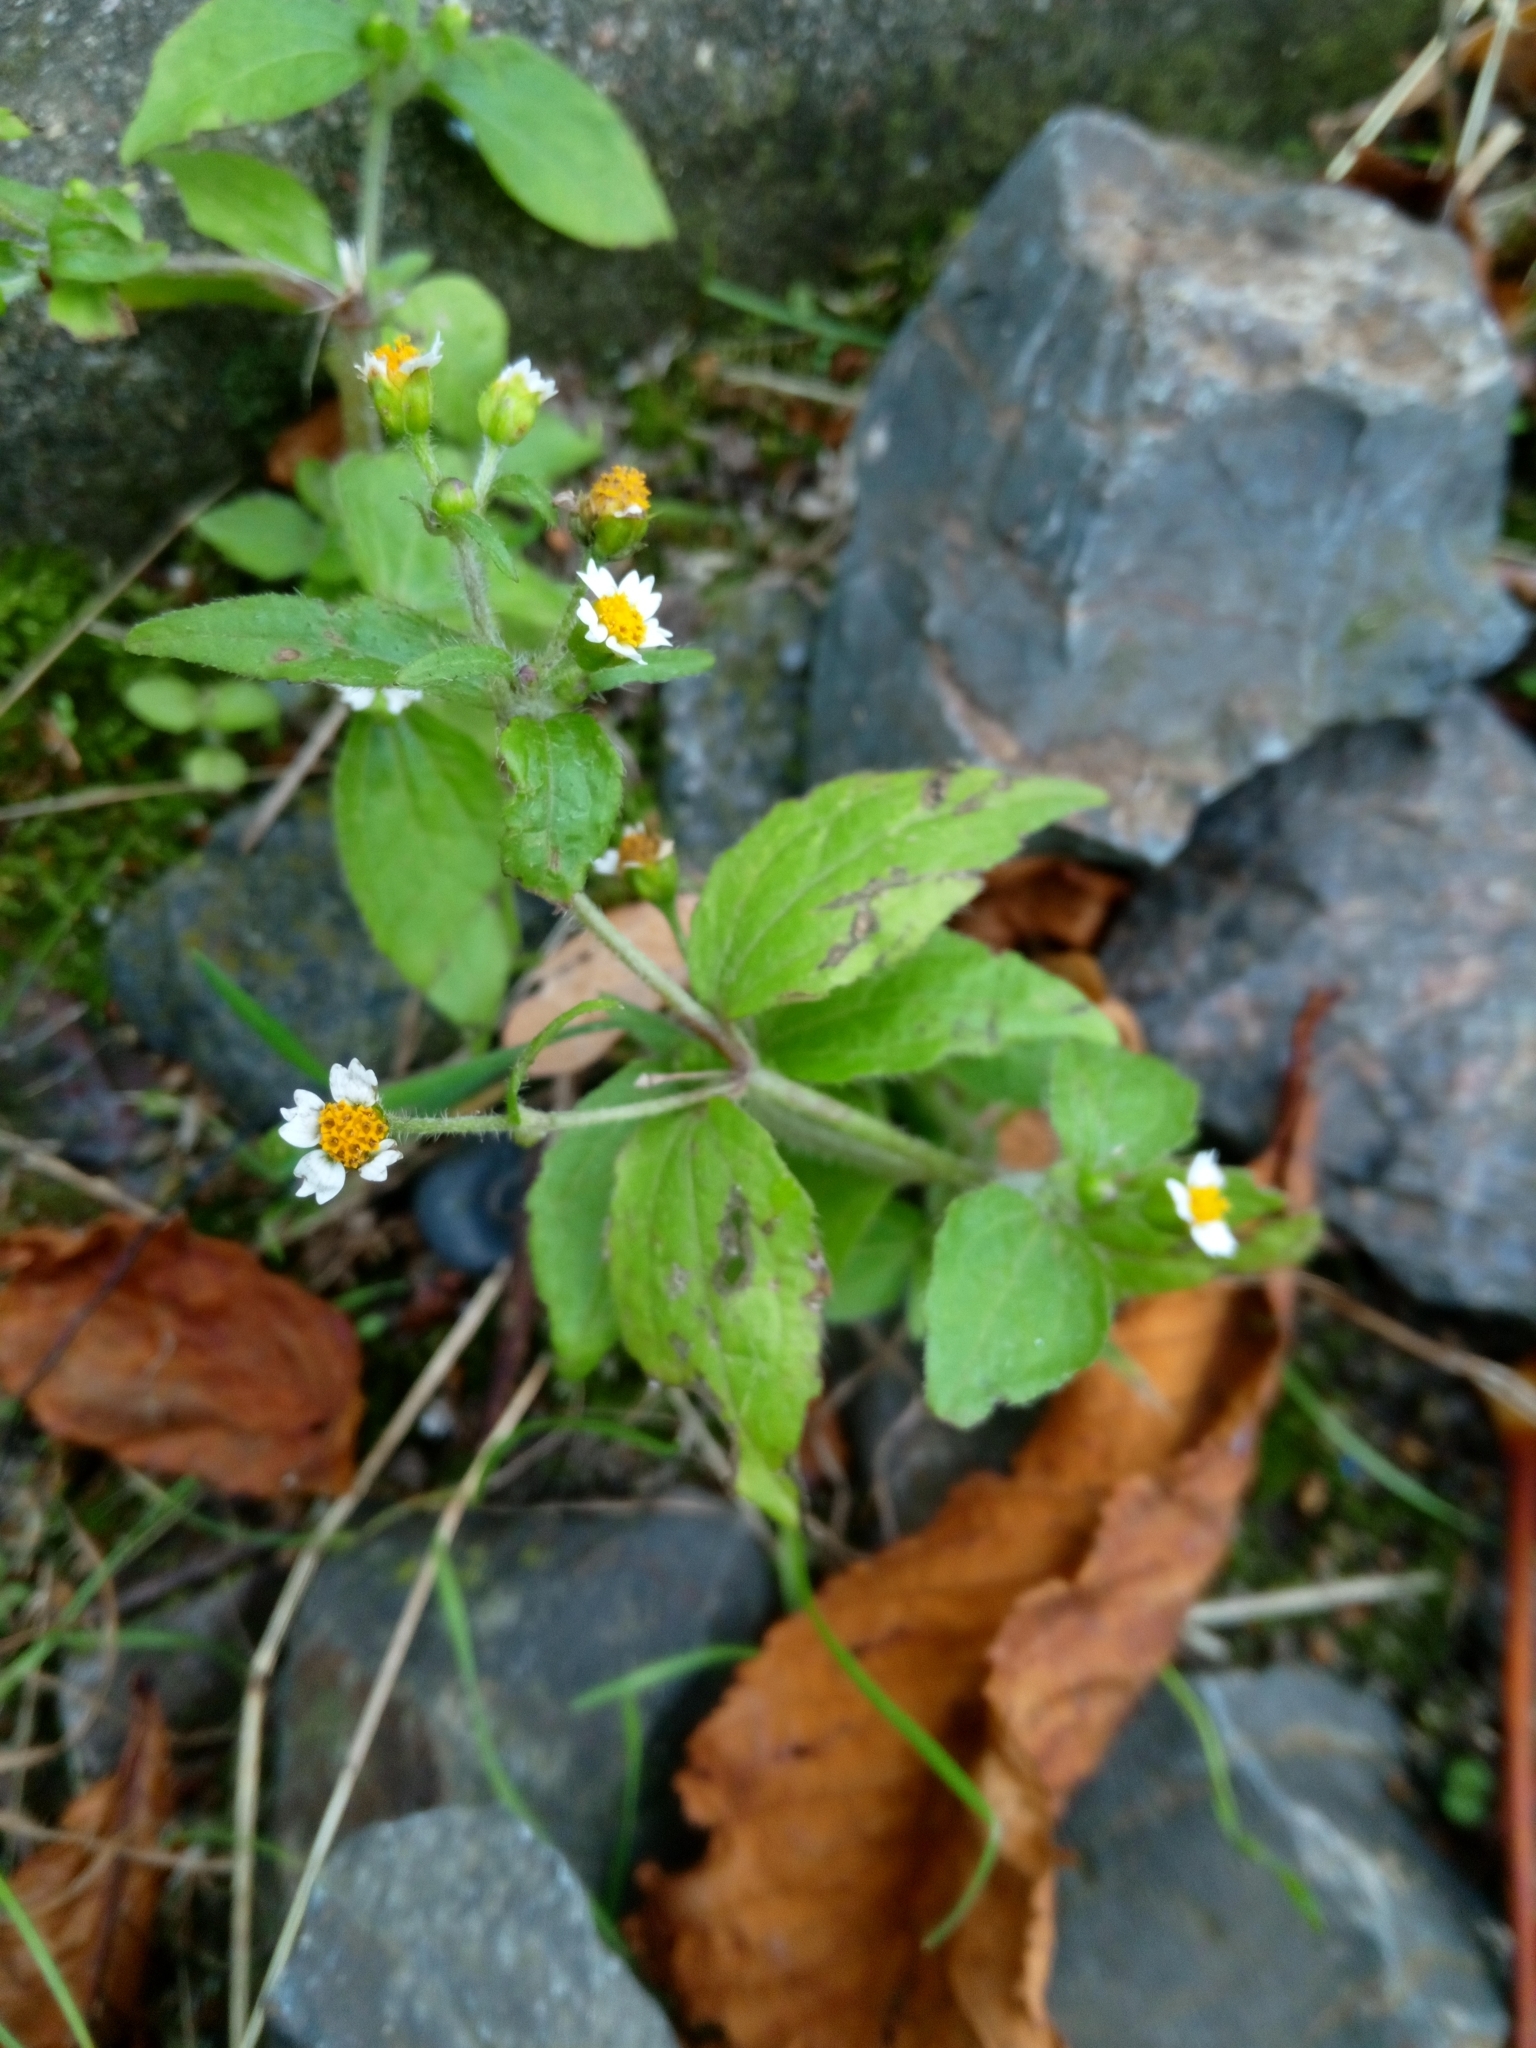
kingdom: Plantae
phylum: Tracheophyta
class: Magnoliopsida
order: Asterales
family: Asteraceae
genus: Galinsoga
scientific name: Galinsoga quadriradiata
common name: Shaggy soldier
